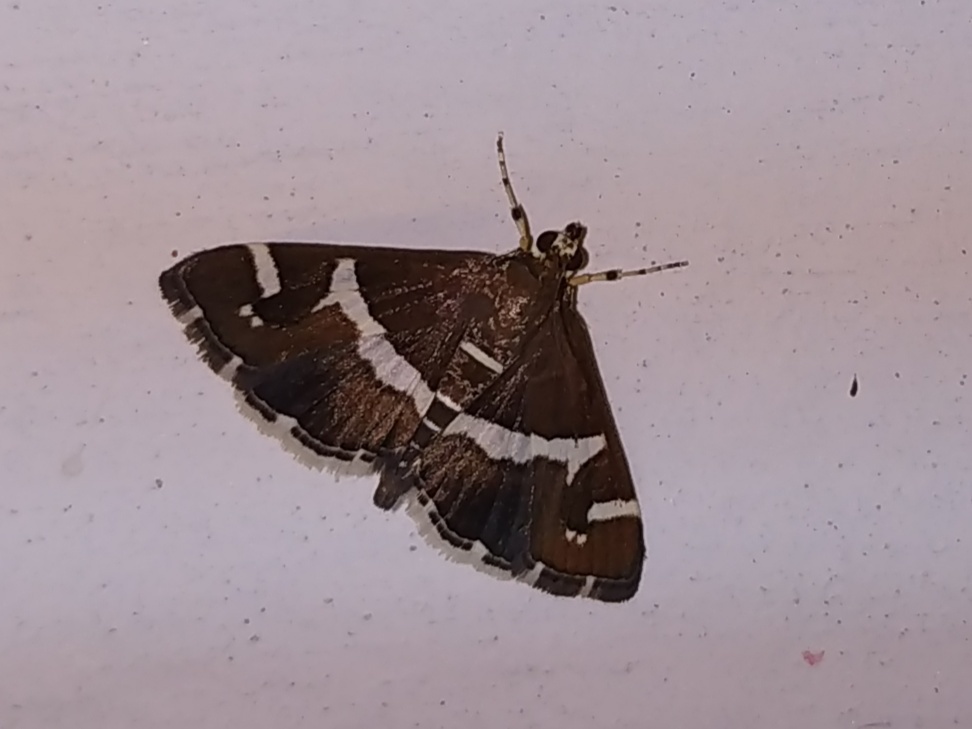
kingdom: Animalia
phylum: Arthropoda
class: Insecta
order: Lepidoptera
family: Crambidae
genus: Spoladea
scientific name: Spoladea recurvalis
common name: Beet webworm moth
